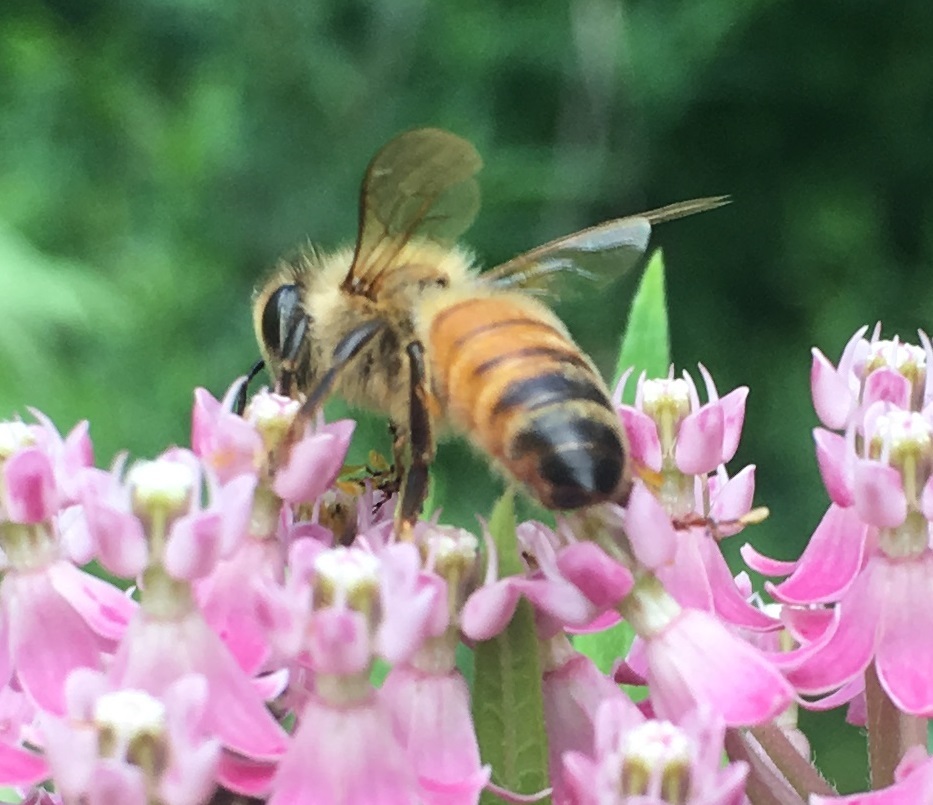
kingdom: Animalia
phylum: Arthropoda
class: Insecta
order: Hymenoptera
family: Apidae
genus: Apis
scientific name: Apis mellifera
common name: Honey bee
